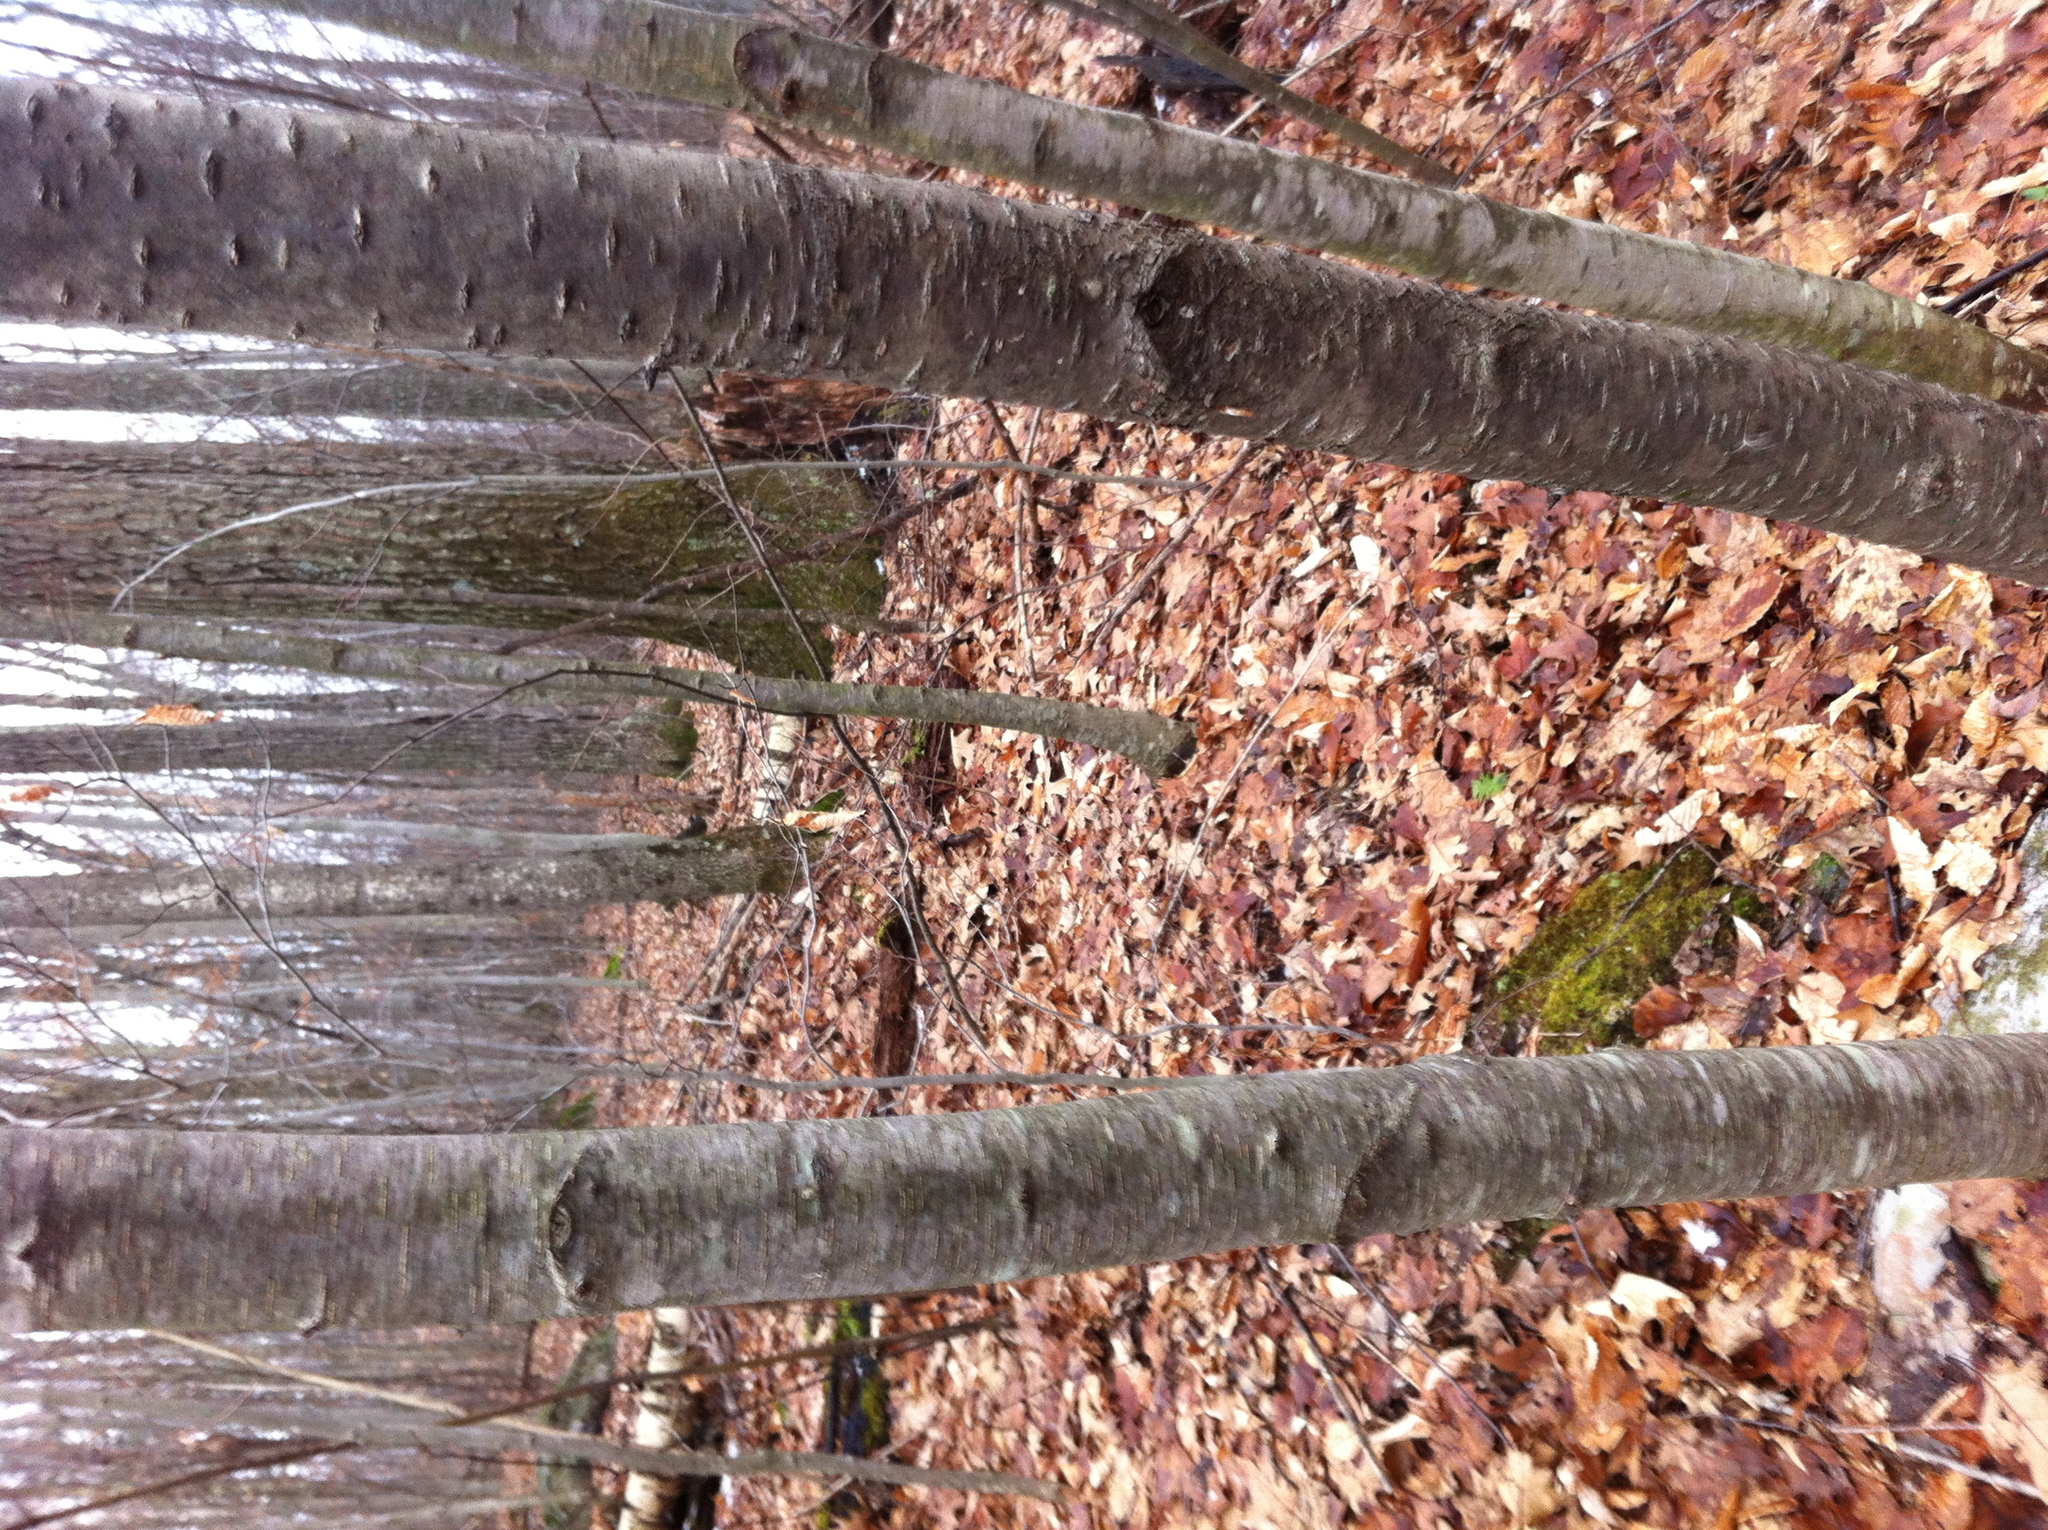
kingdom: Plantae
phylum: Tracheophyta
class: Magnoliopsida
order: Fagales
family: Betulaceae
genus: Betula
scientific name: Betula lenta
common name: Black birch
